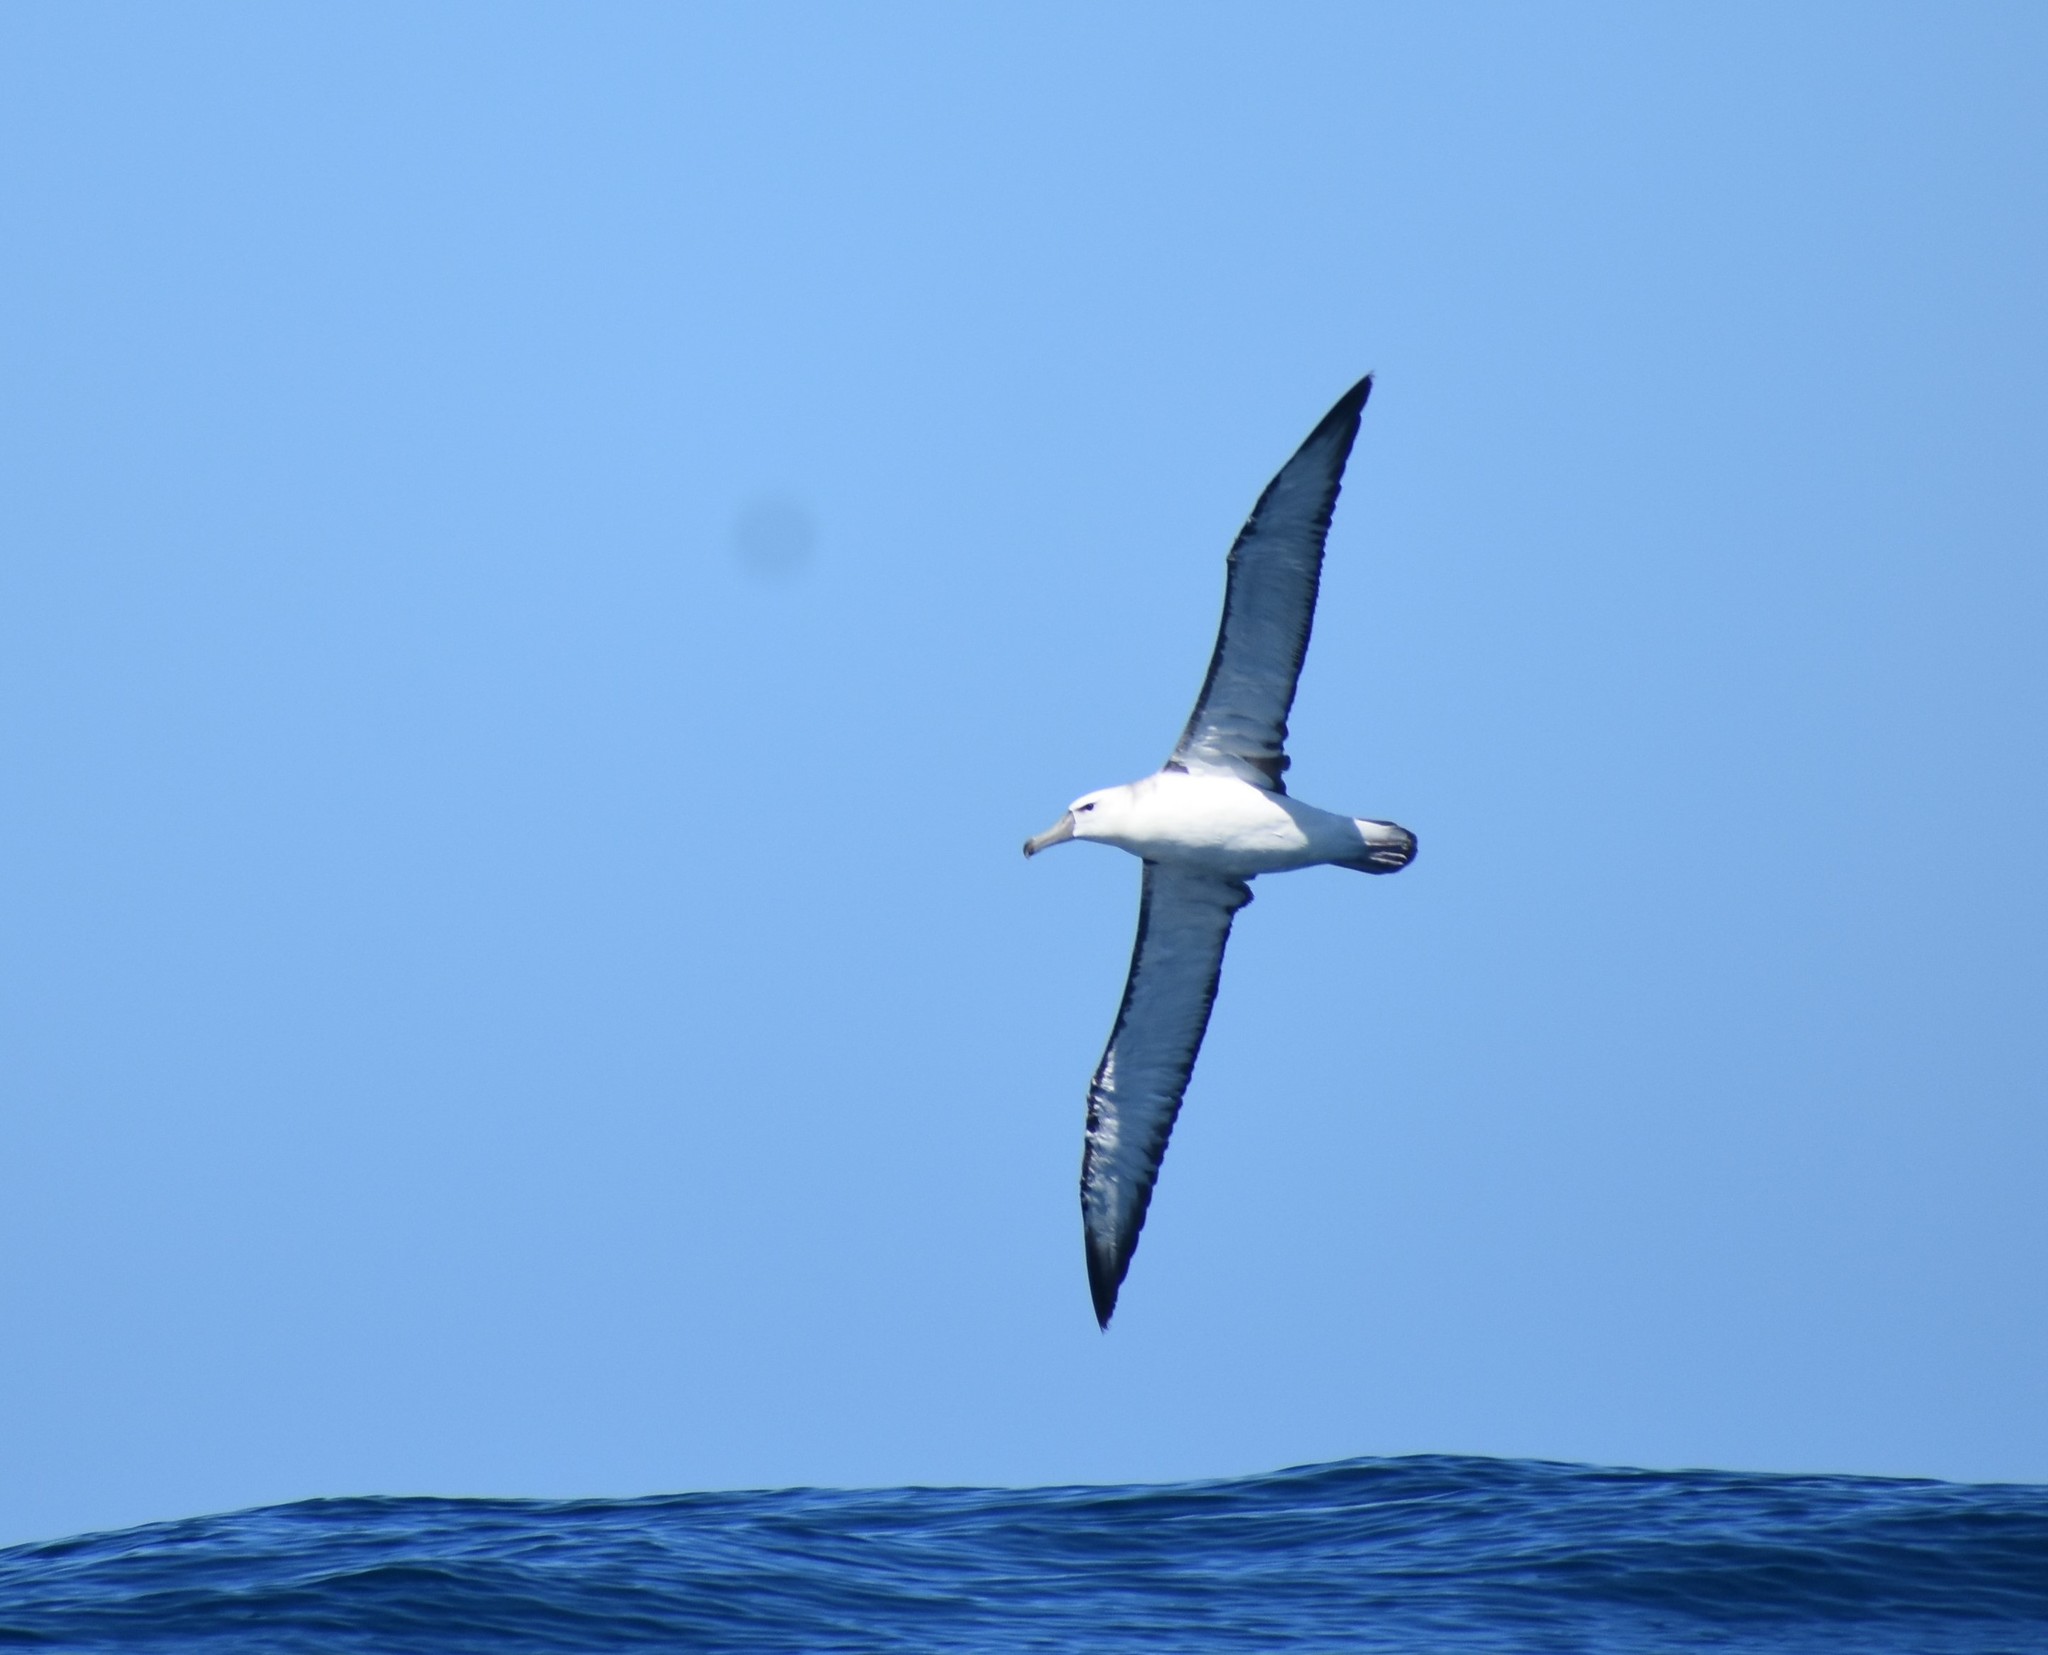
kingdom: Animalia
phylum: Chordata
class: Aves
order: Procellariiformes
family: Diomedeidae
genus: Thalassarche
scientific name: Thalassarche cauta
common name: Shy albatross
